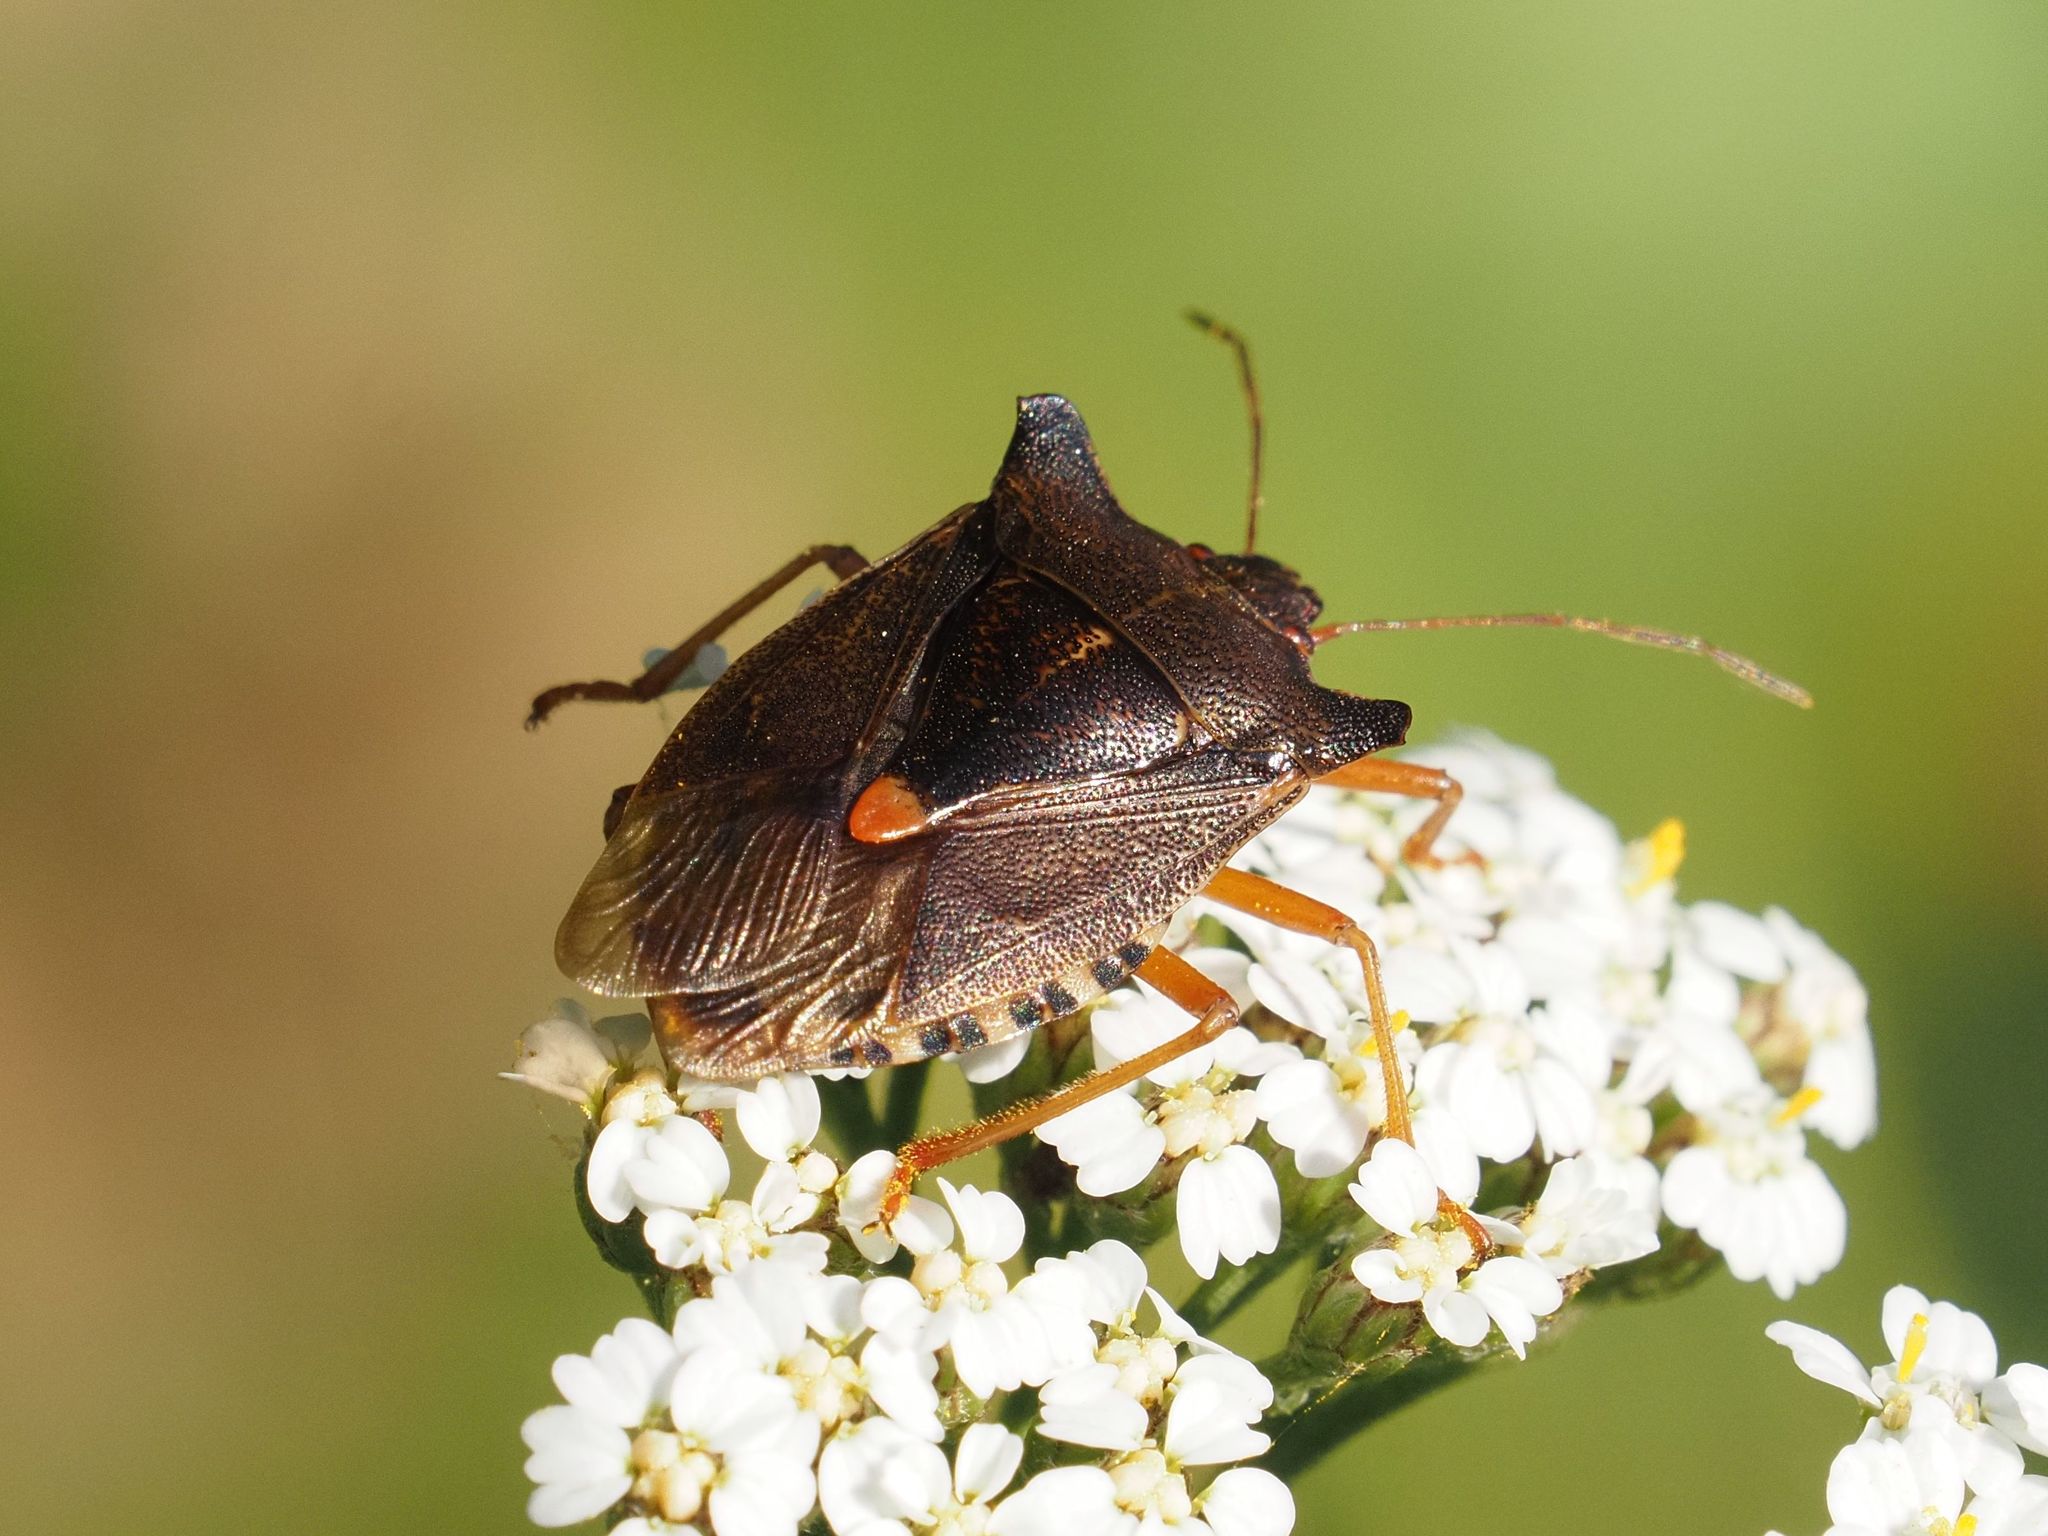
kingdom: Animalia
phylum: Arthropoda
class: Insecta
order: Hemiptera
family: Pentatomidae
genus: Pentatoma
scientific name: Pentatoma rufipes
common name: Forest bug
